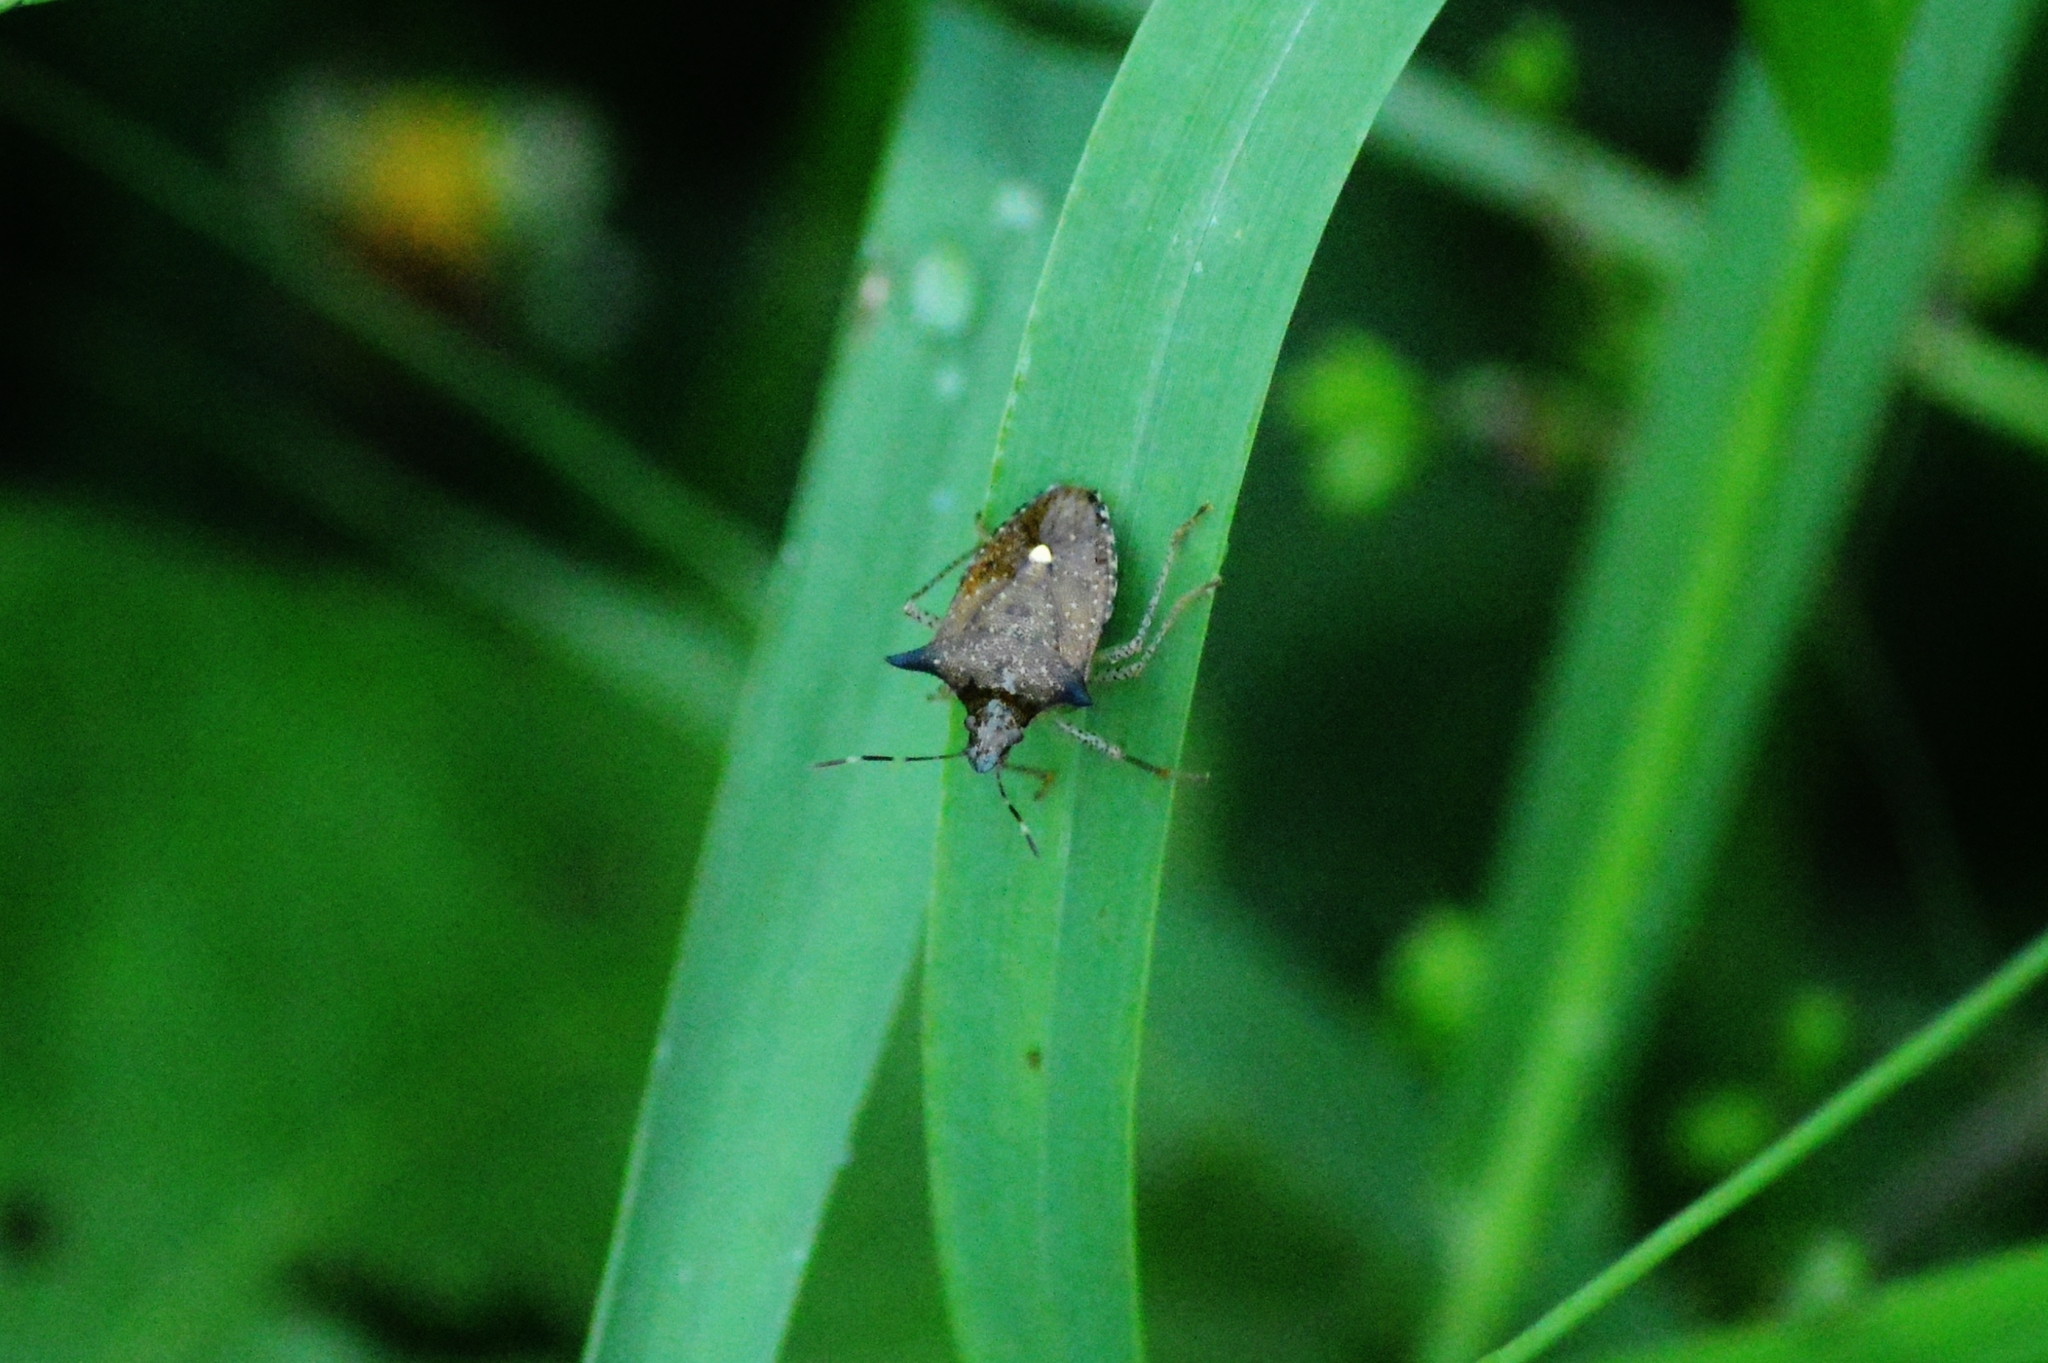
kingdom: Animalia
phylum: Arthropoda
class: Insecta
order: Hemiptera
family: Pentatomidae
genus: Euschistus
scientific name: Euschistus
